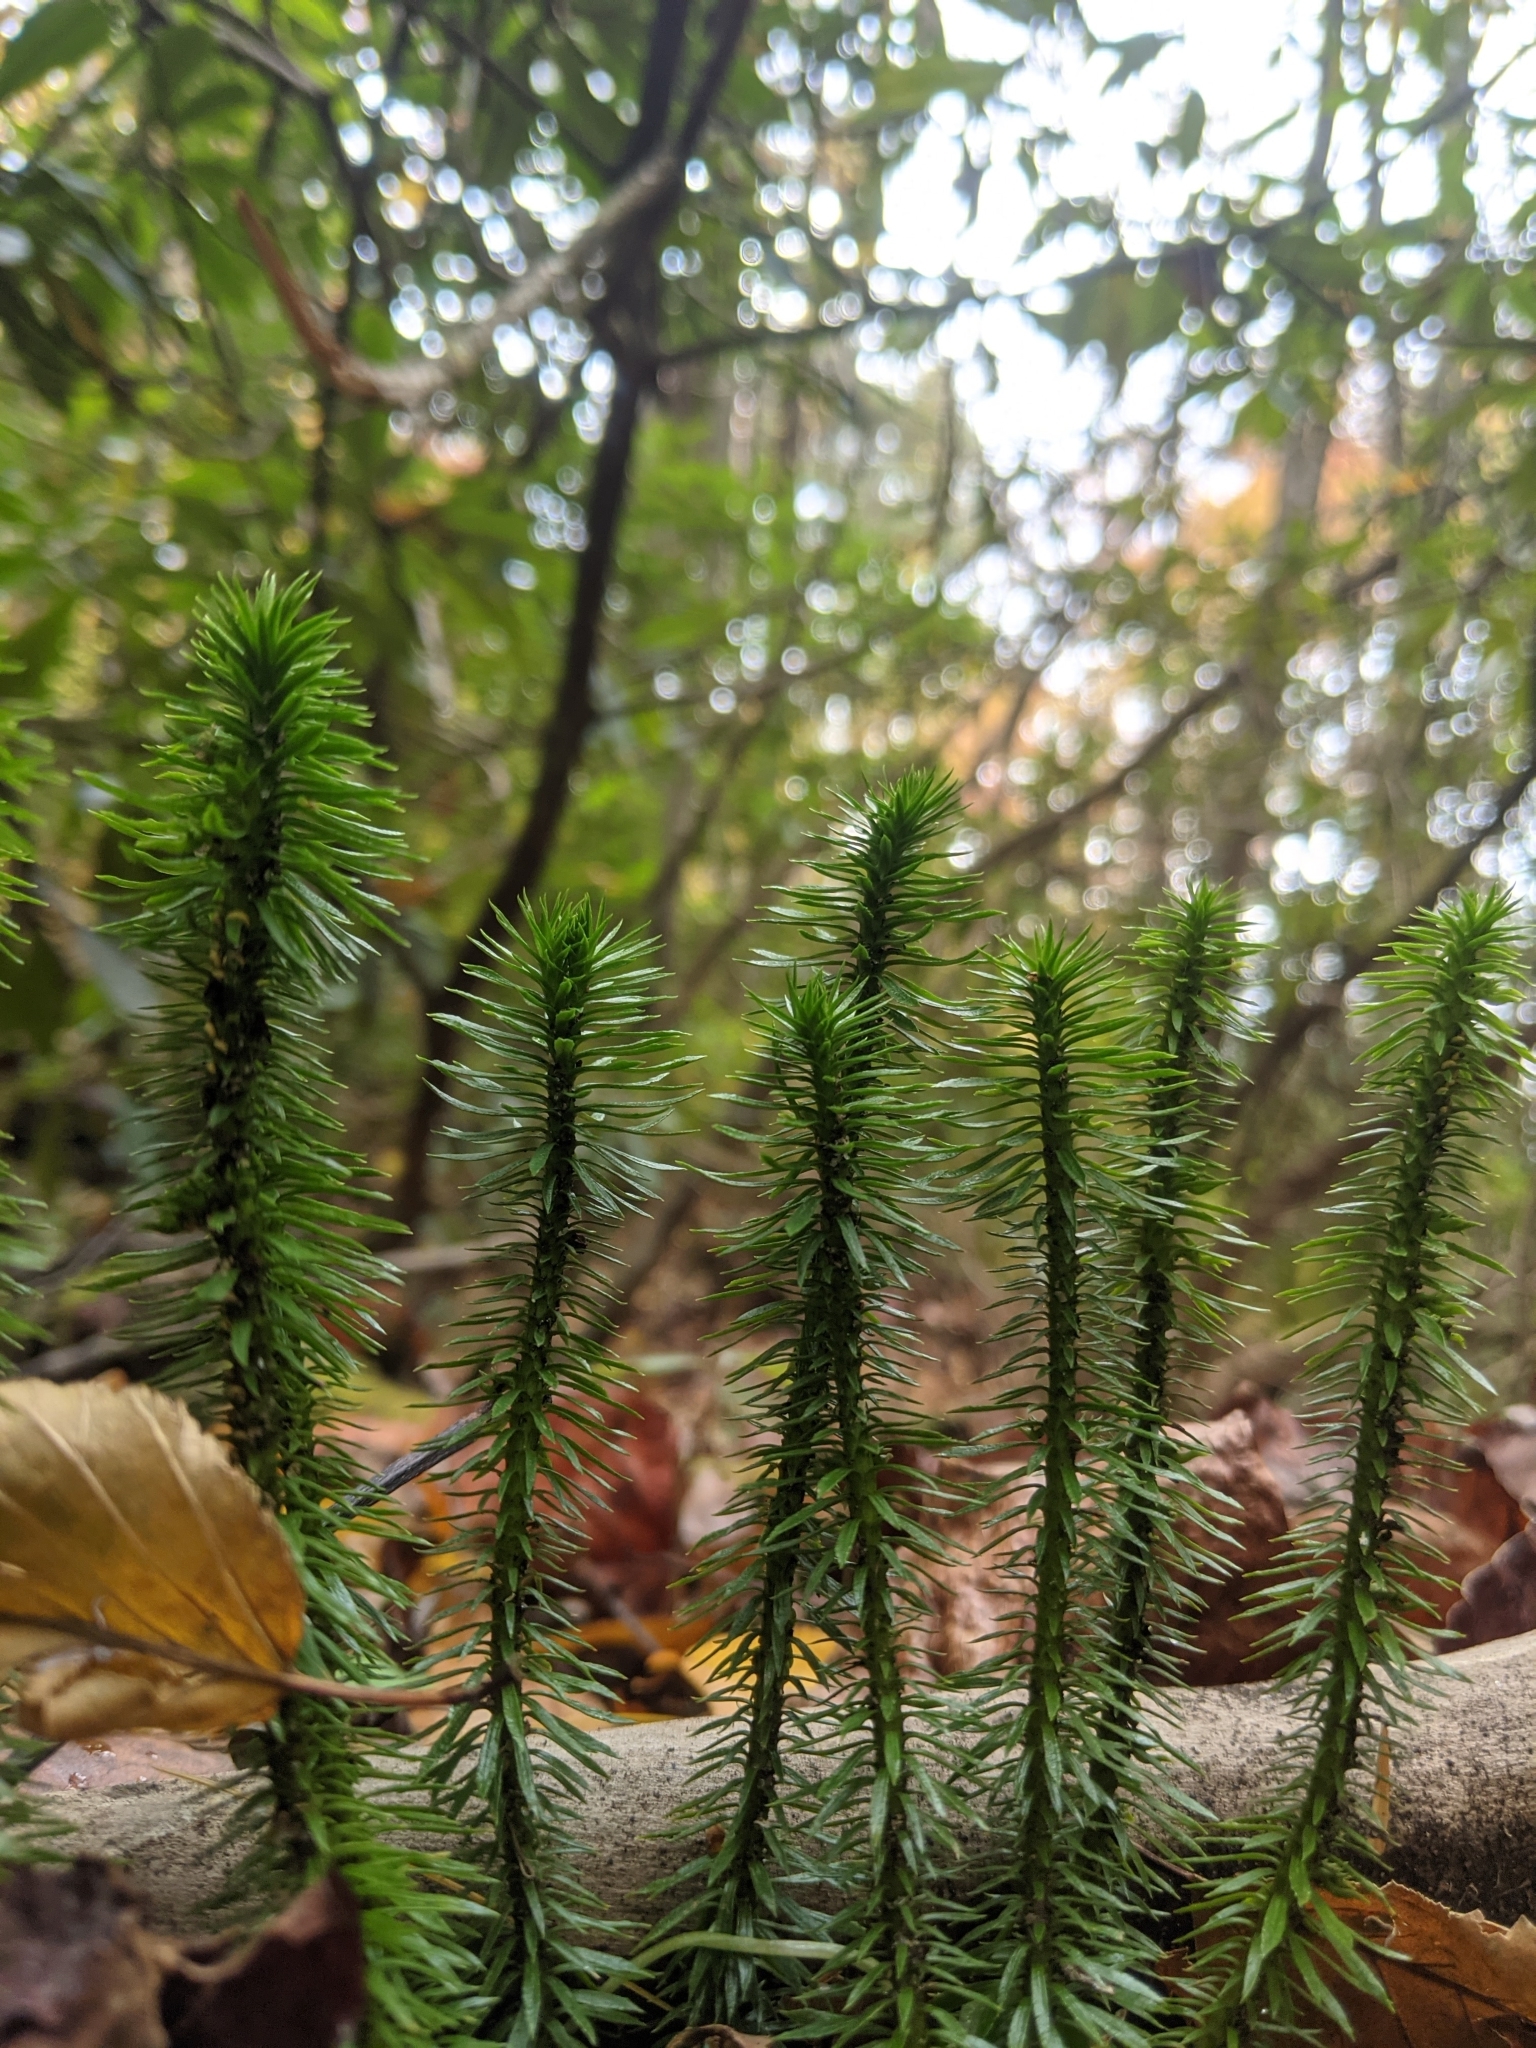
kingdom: Plantae
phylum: Tracheophyta
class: Lycopodiopsida
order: Lycopodiales
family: Lycopodiaceae
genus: Huperzia
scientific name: Huperzia lucidula
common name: Shining clubmoss
